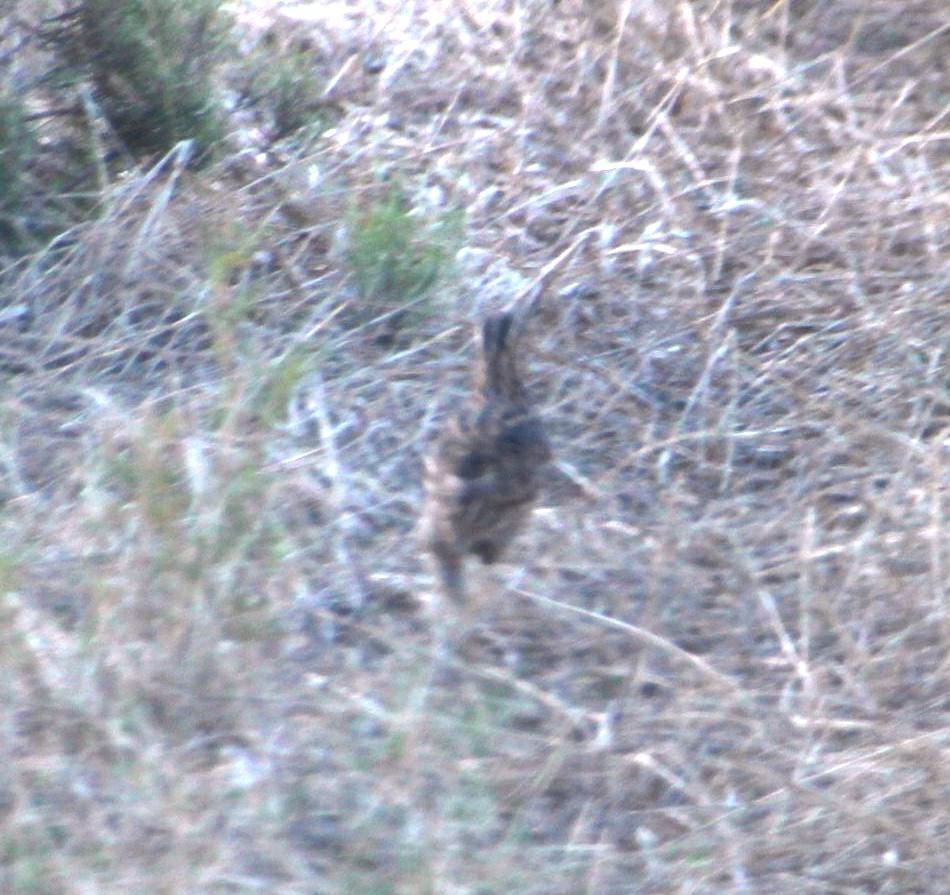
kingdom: Animalia
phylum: Chordata
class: Aves
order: Galliformes
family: Phasianidae
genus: Coturnix
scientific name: Coturnix coturnix
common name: Common quail
